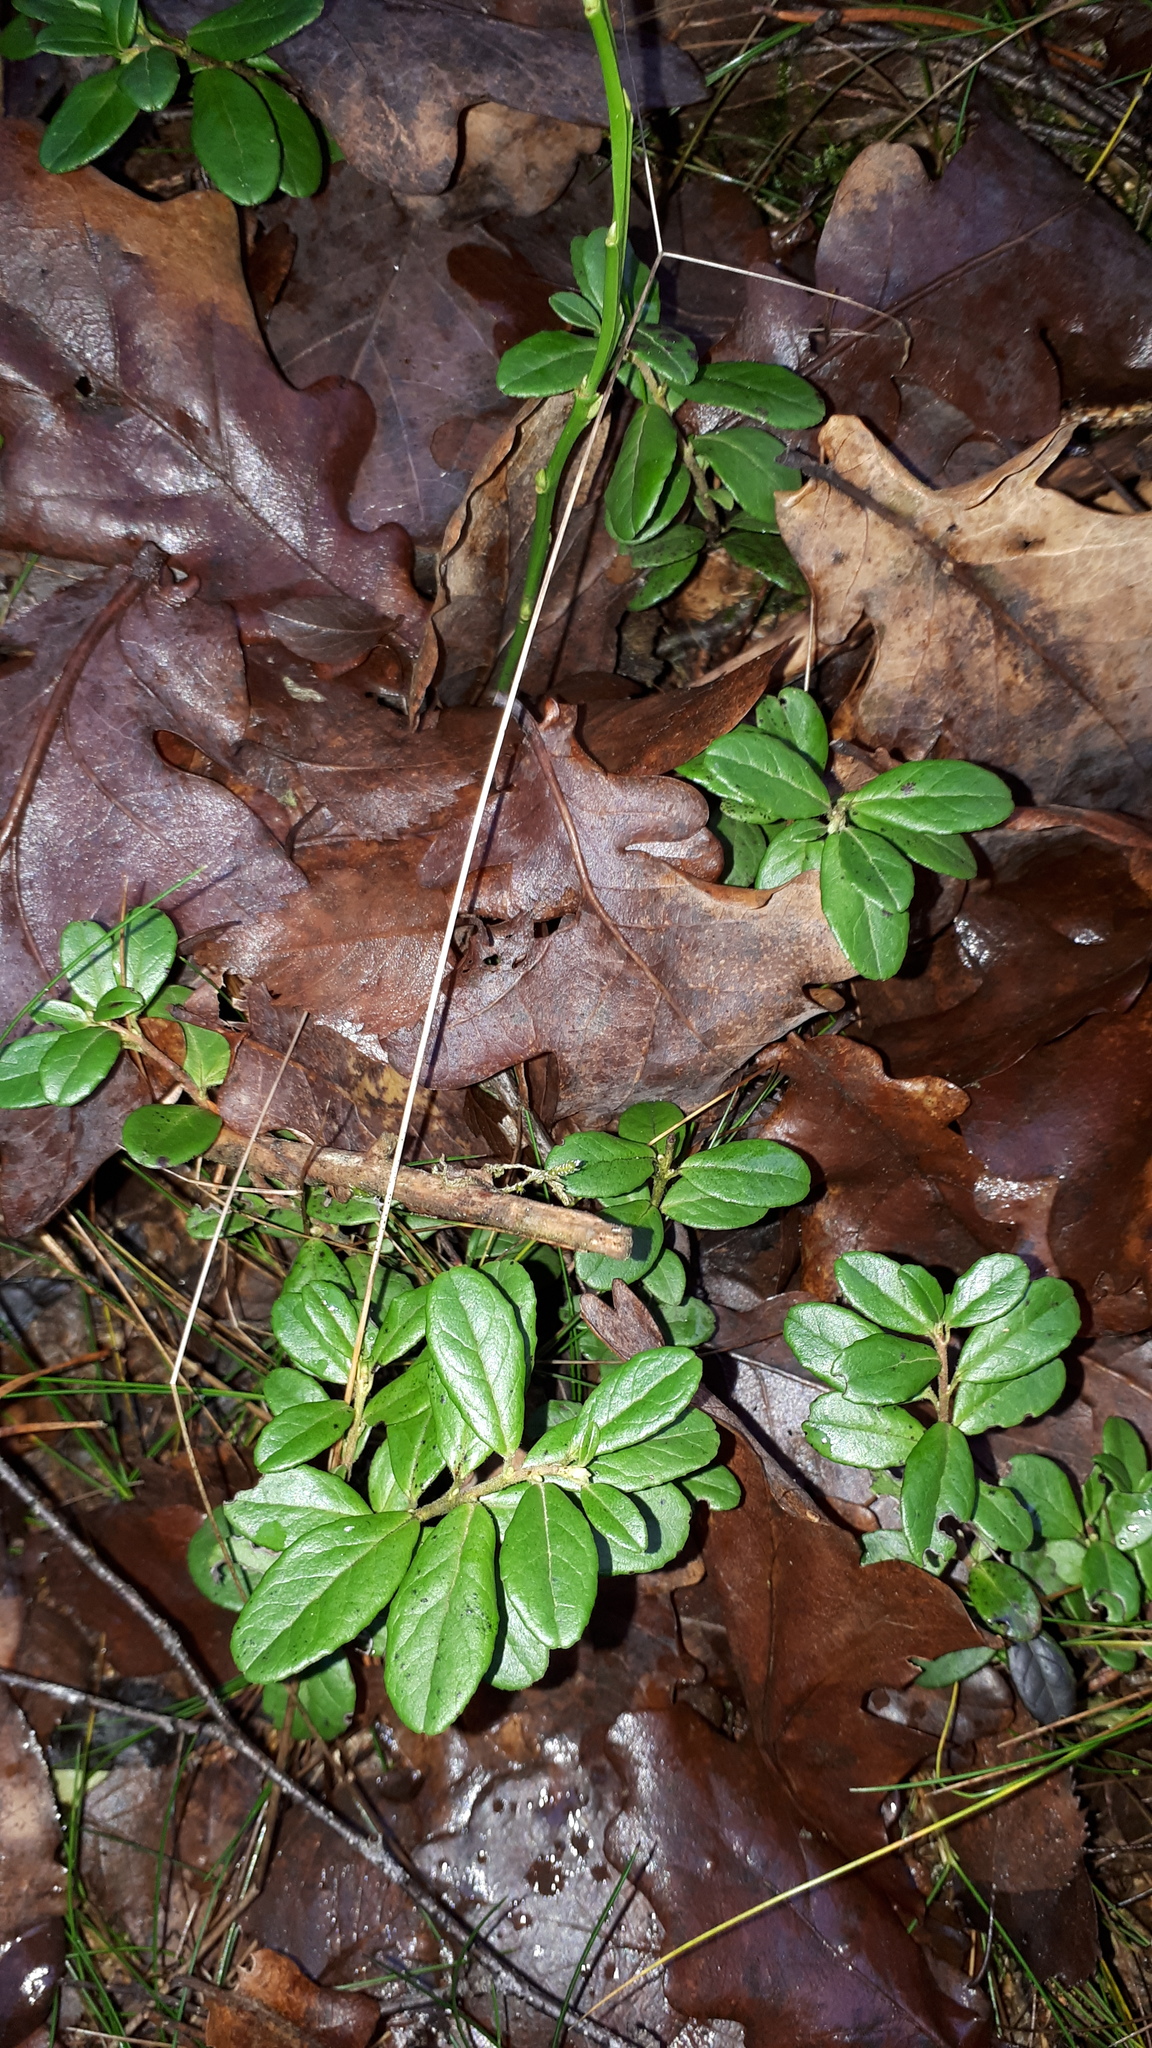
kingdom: Plantae
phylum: Tracheophyta
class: Magnoliopsida
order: Ericales
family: Ericaceae
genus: Vaccinium
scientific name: Vaccinium vitis-idaea
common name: Cowberry
